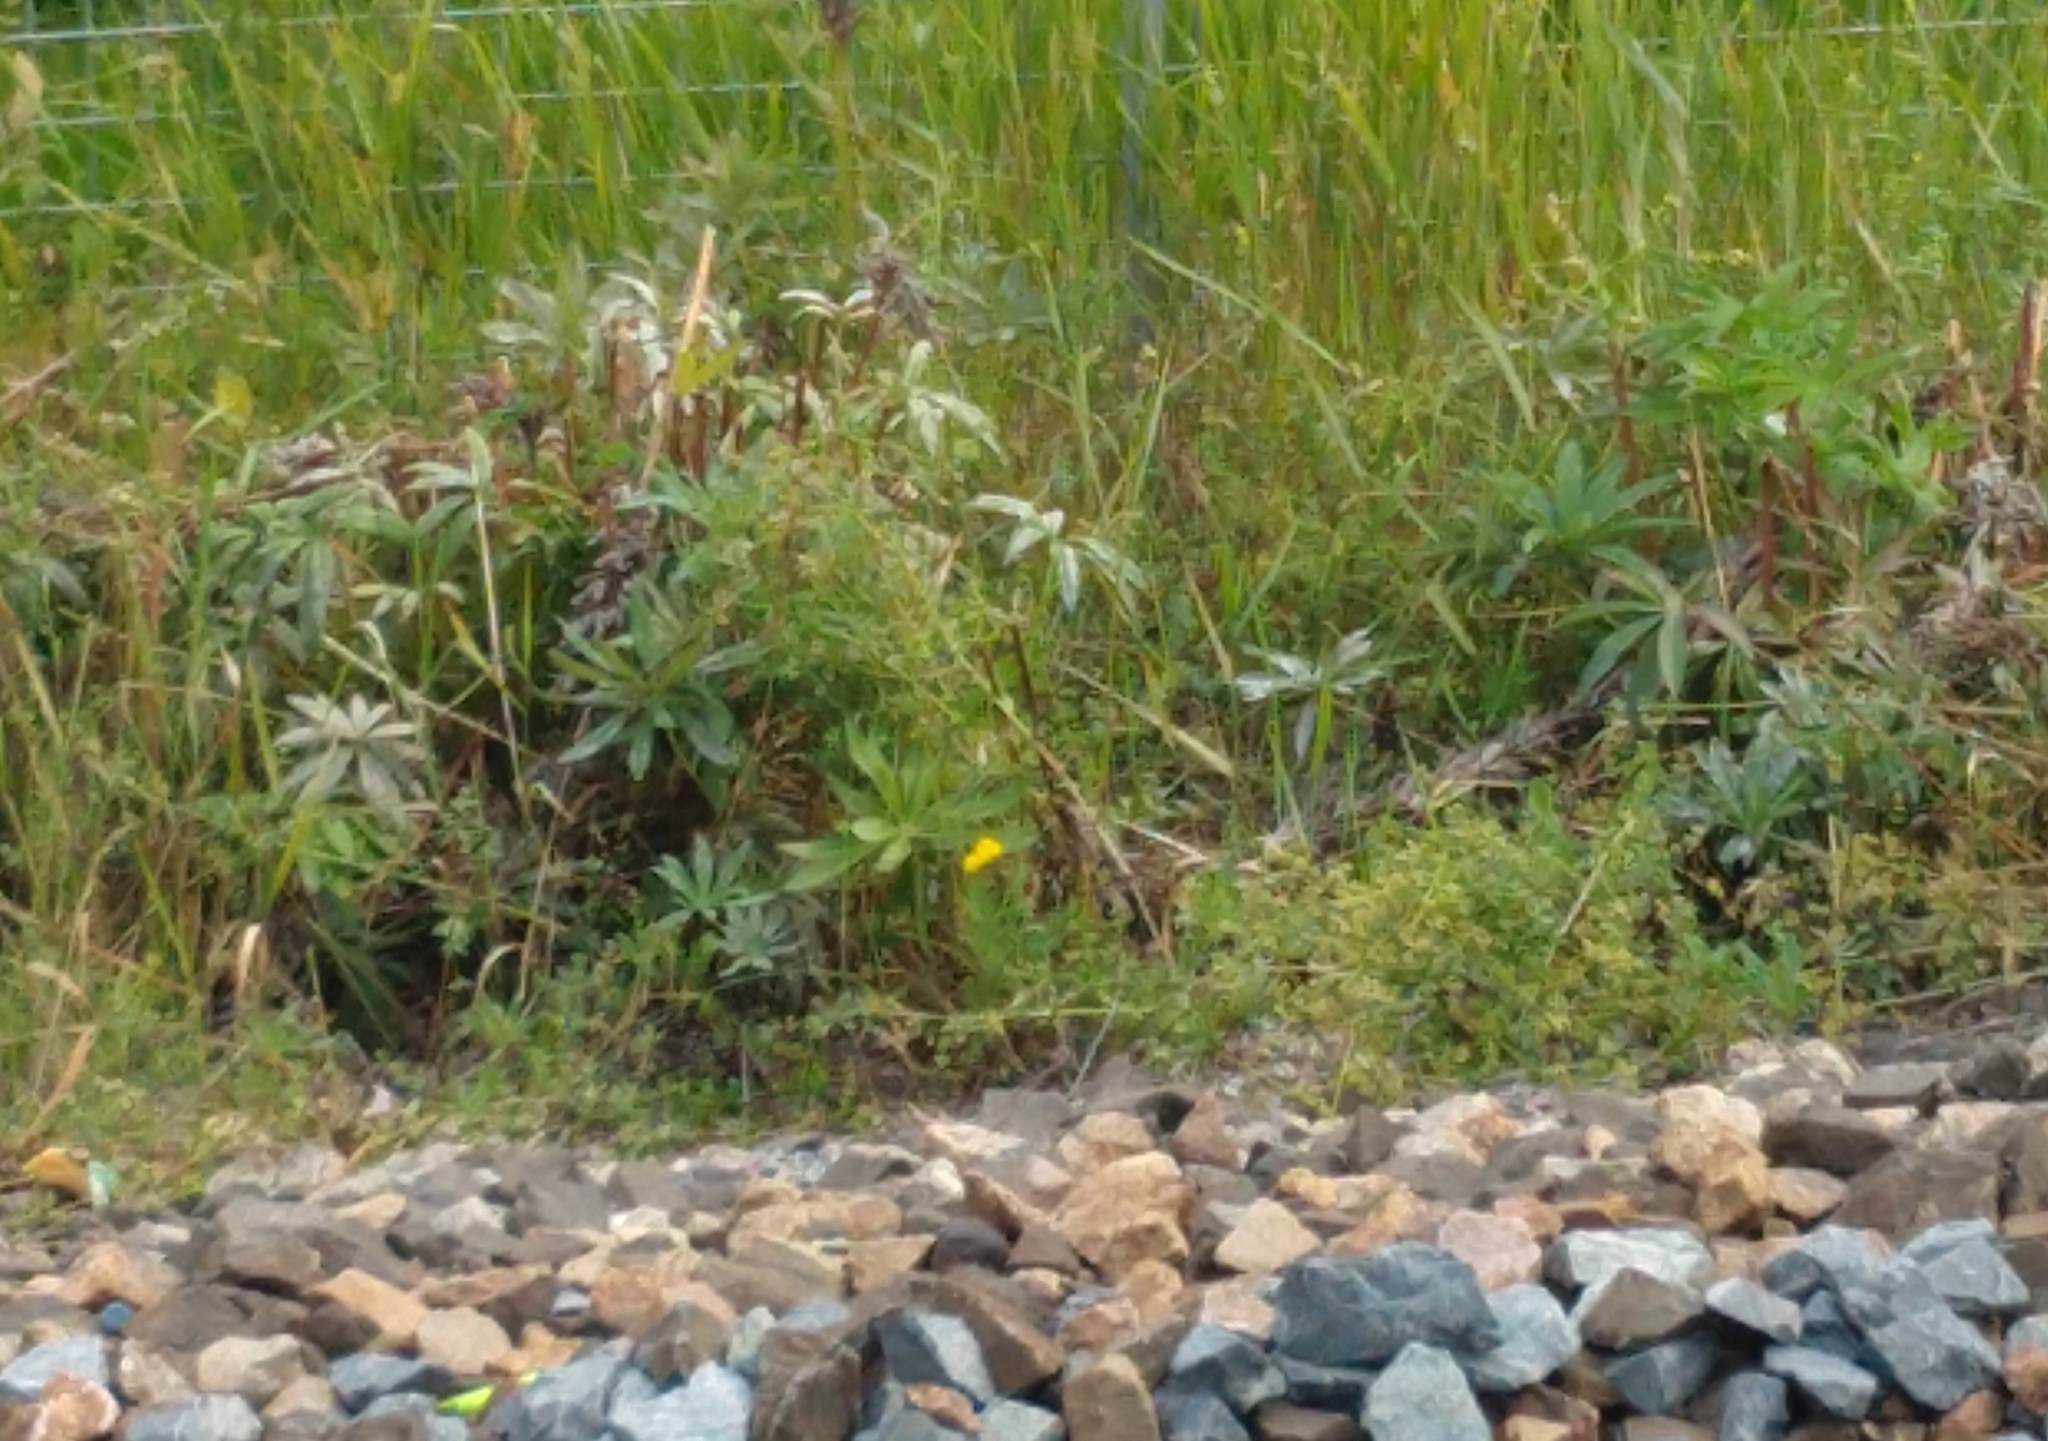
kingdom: Plantae
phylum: Tracheophyta
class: Magnoliopsida
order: Fabales
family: Fabaceae
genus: Lupinus
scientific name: Lupinus polyphyllus
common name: Garden lupin
